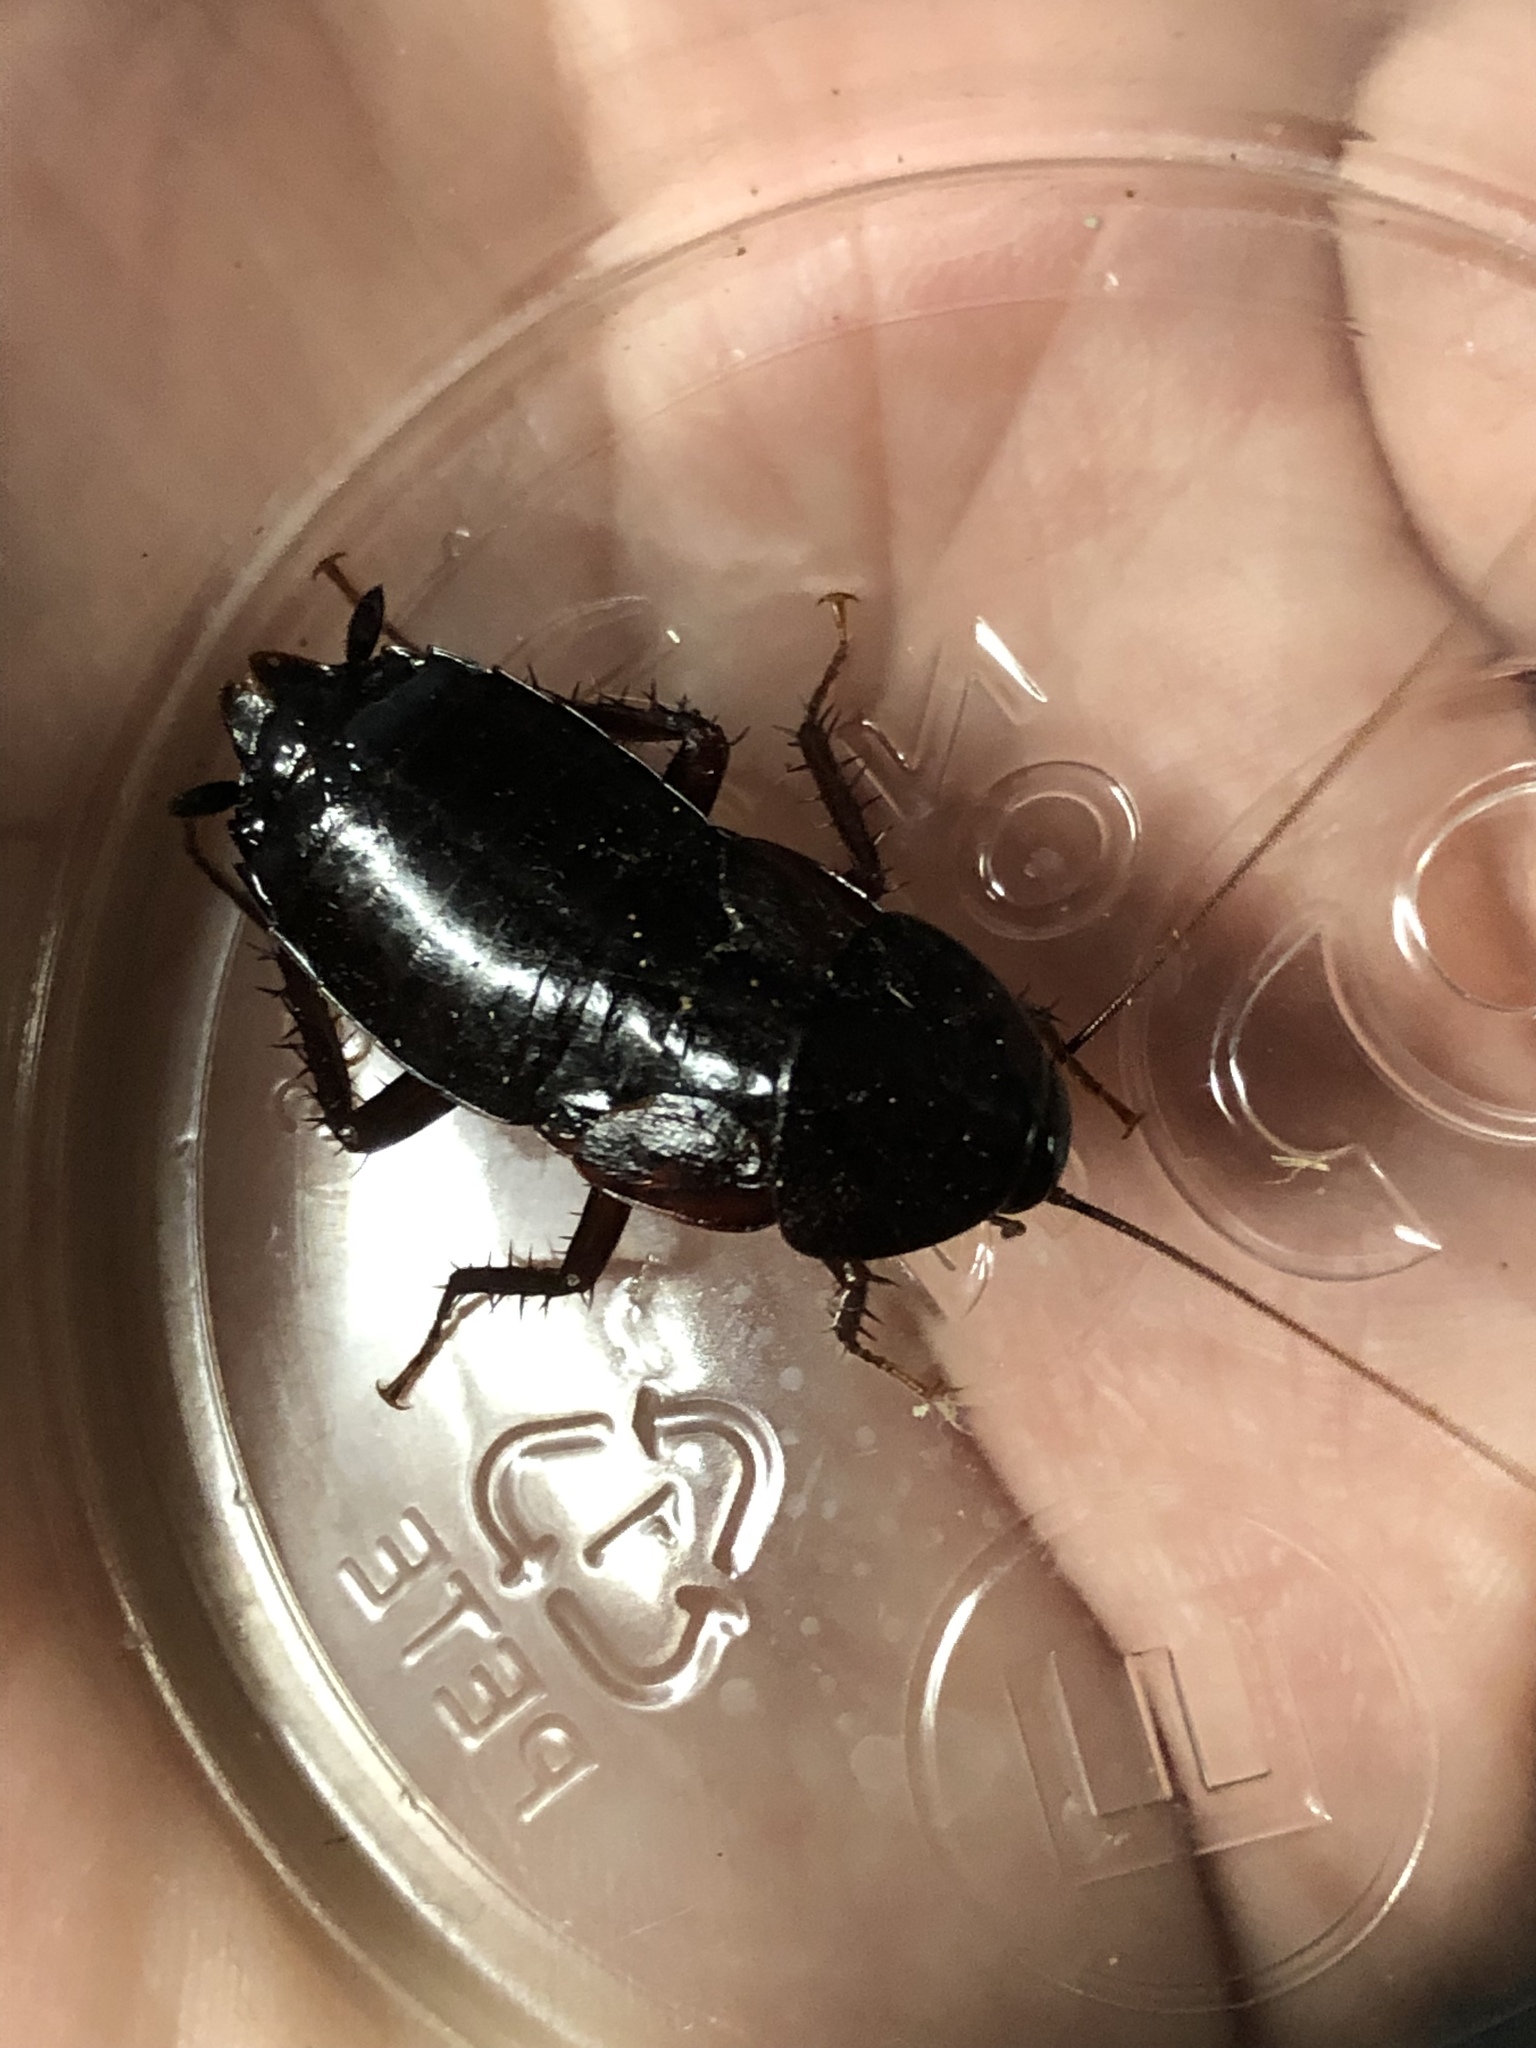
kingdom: Animalia
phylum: Arthropoda
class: Insecta
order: Blattodea
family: Blattidae
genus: Blatta
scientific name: Blatta orientalis
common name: Oriental cockroach
